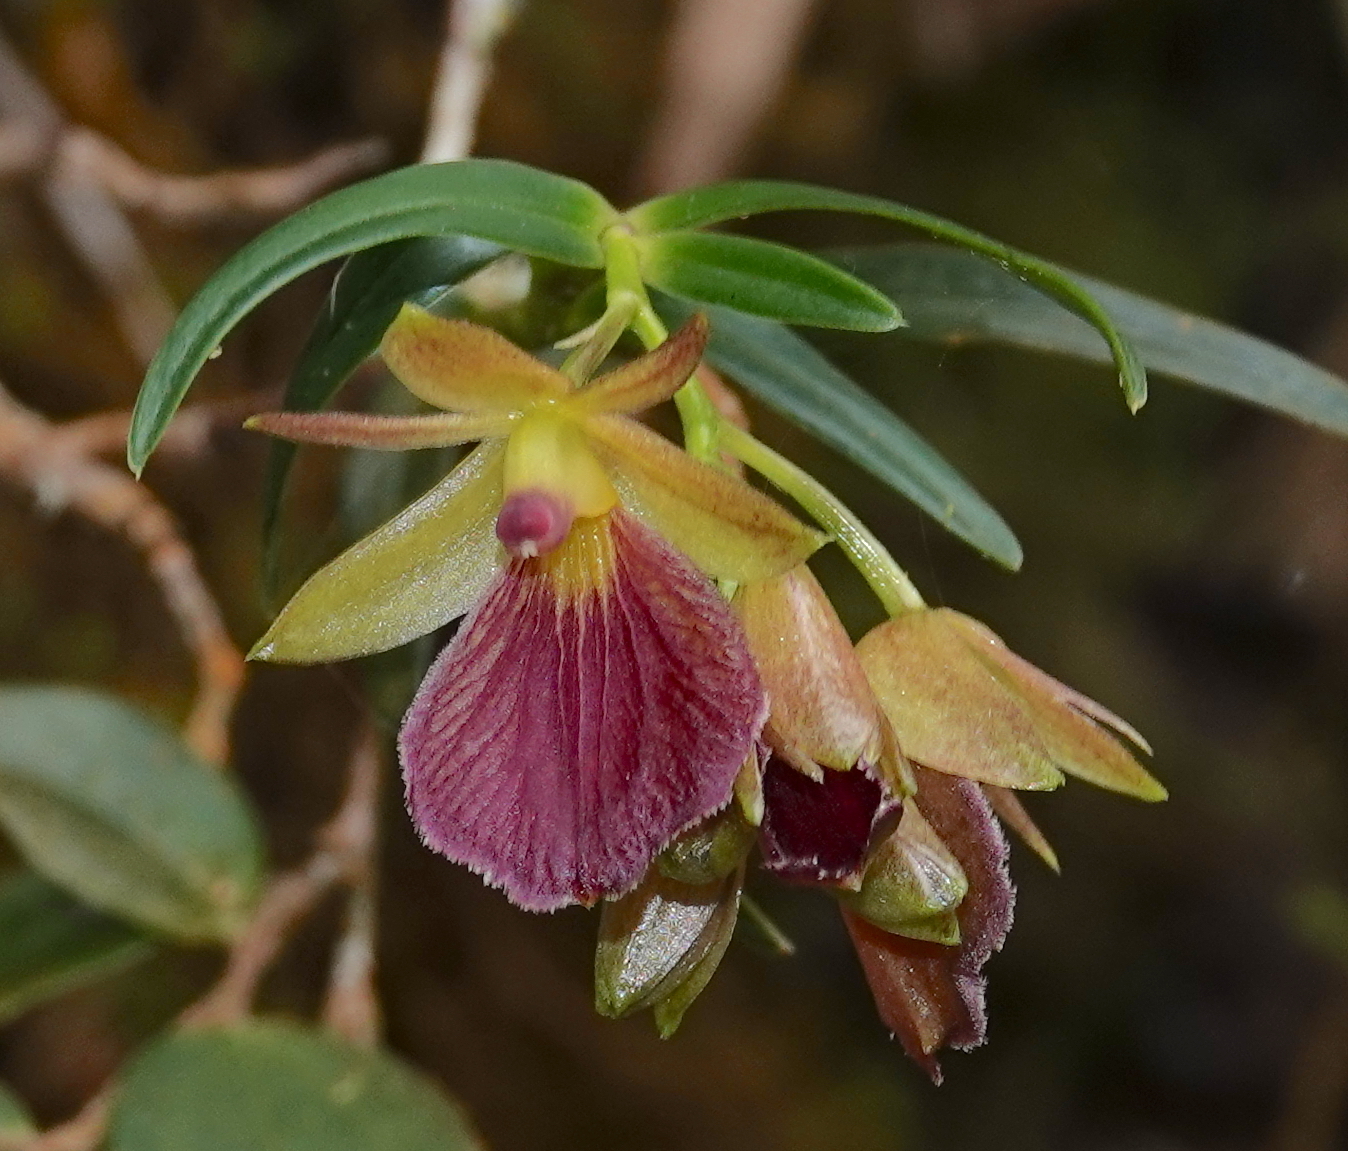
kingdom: Plantae
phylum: Tracheophyta
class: Liliopsida
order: Asparagales
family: Orchidaceae
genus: Epidendrum
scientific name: Epidendrum cleistocoleum
